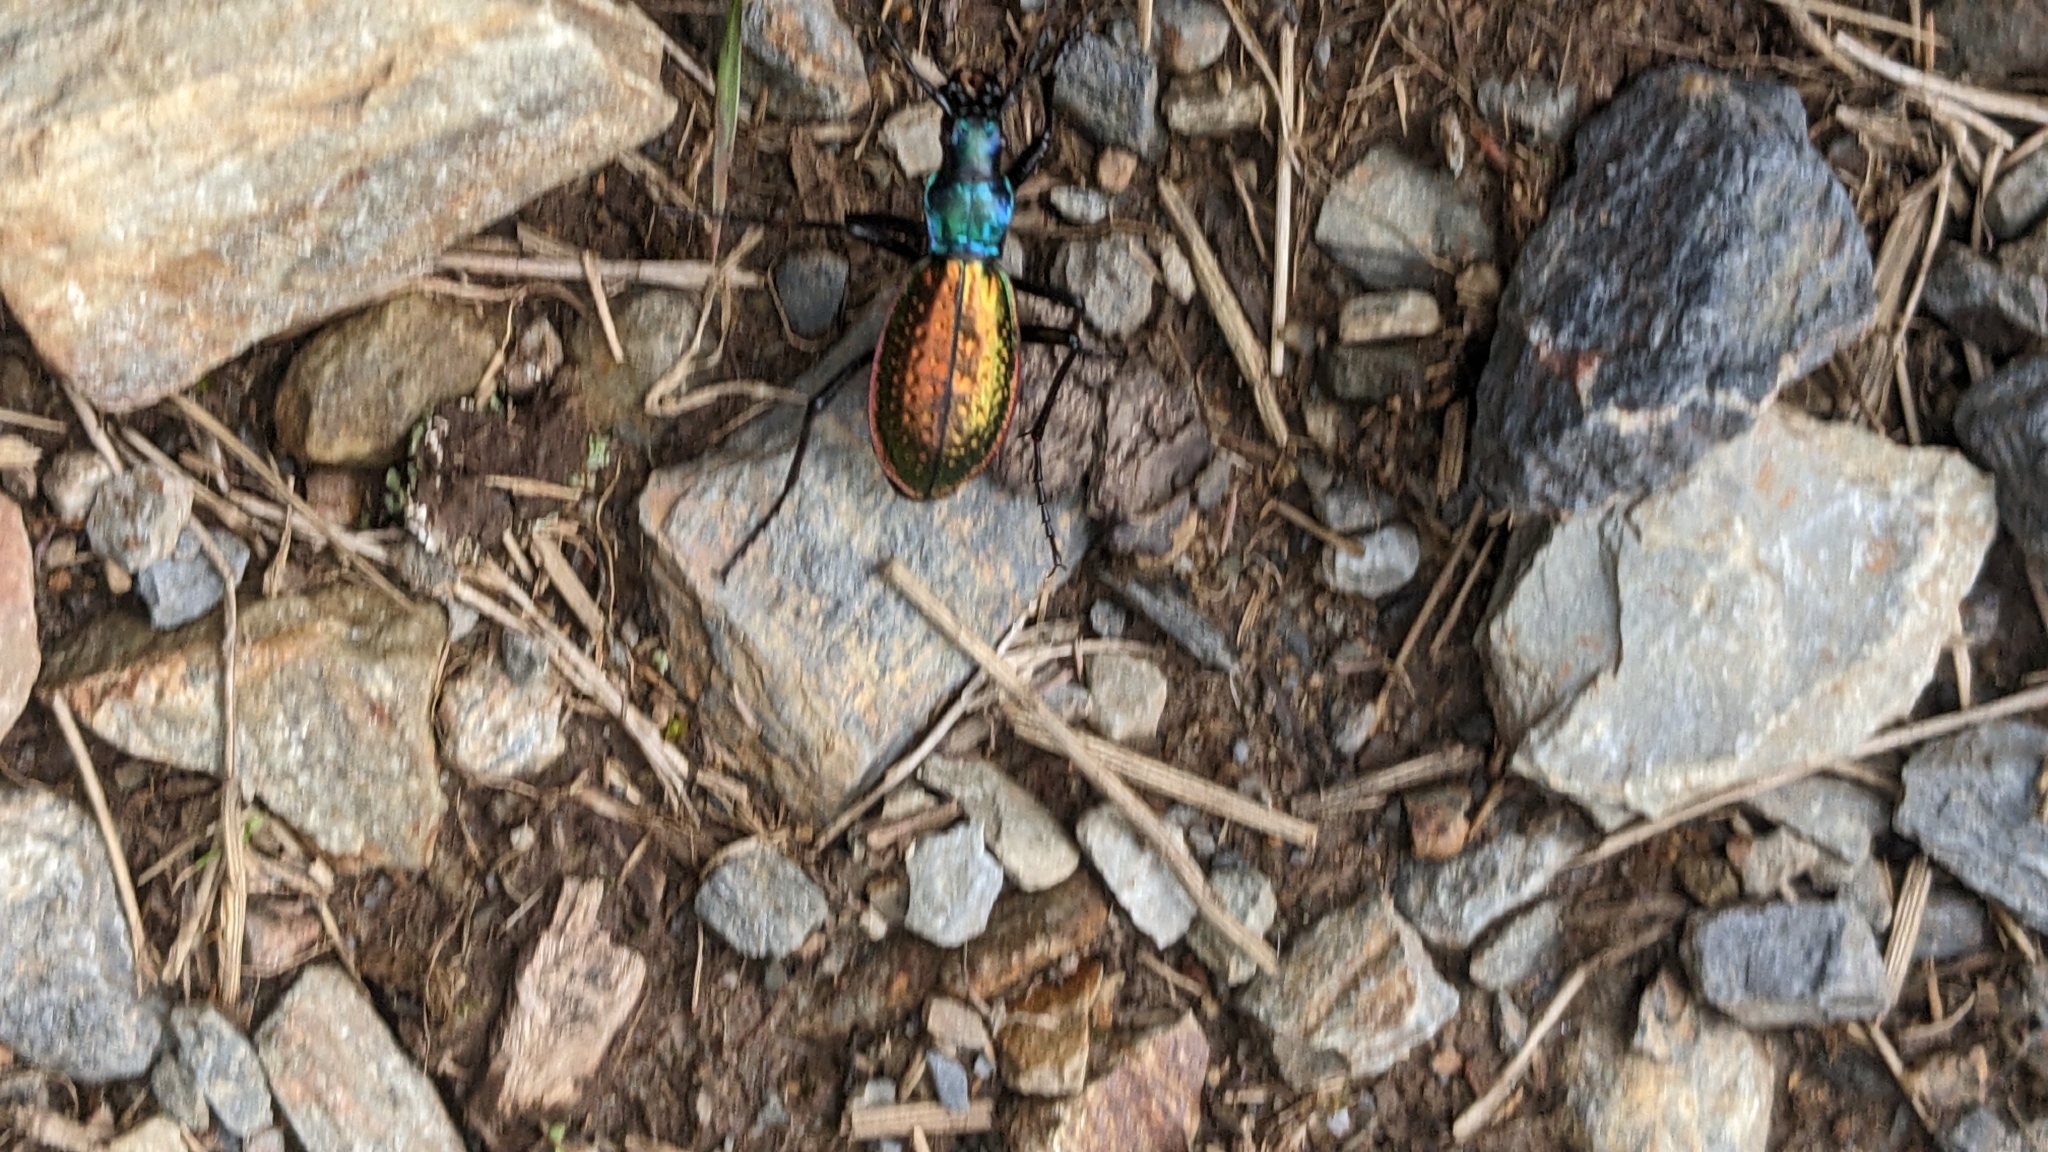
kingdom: Animalia
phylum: Arthropoda
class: Insecta
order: Coleoptera
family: Carabidae
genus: Carabus
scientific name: Carabus rutilans
